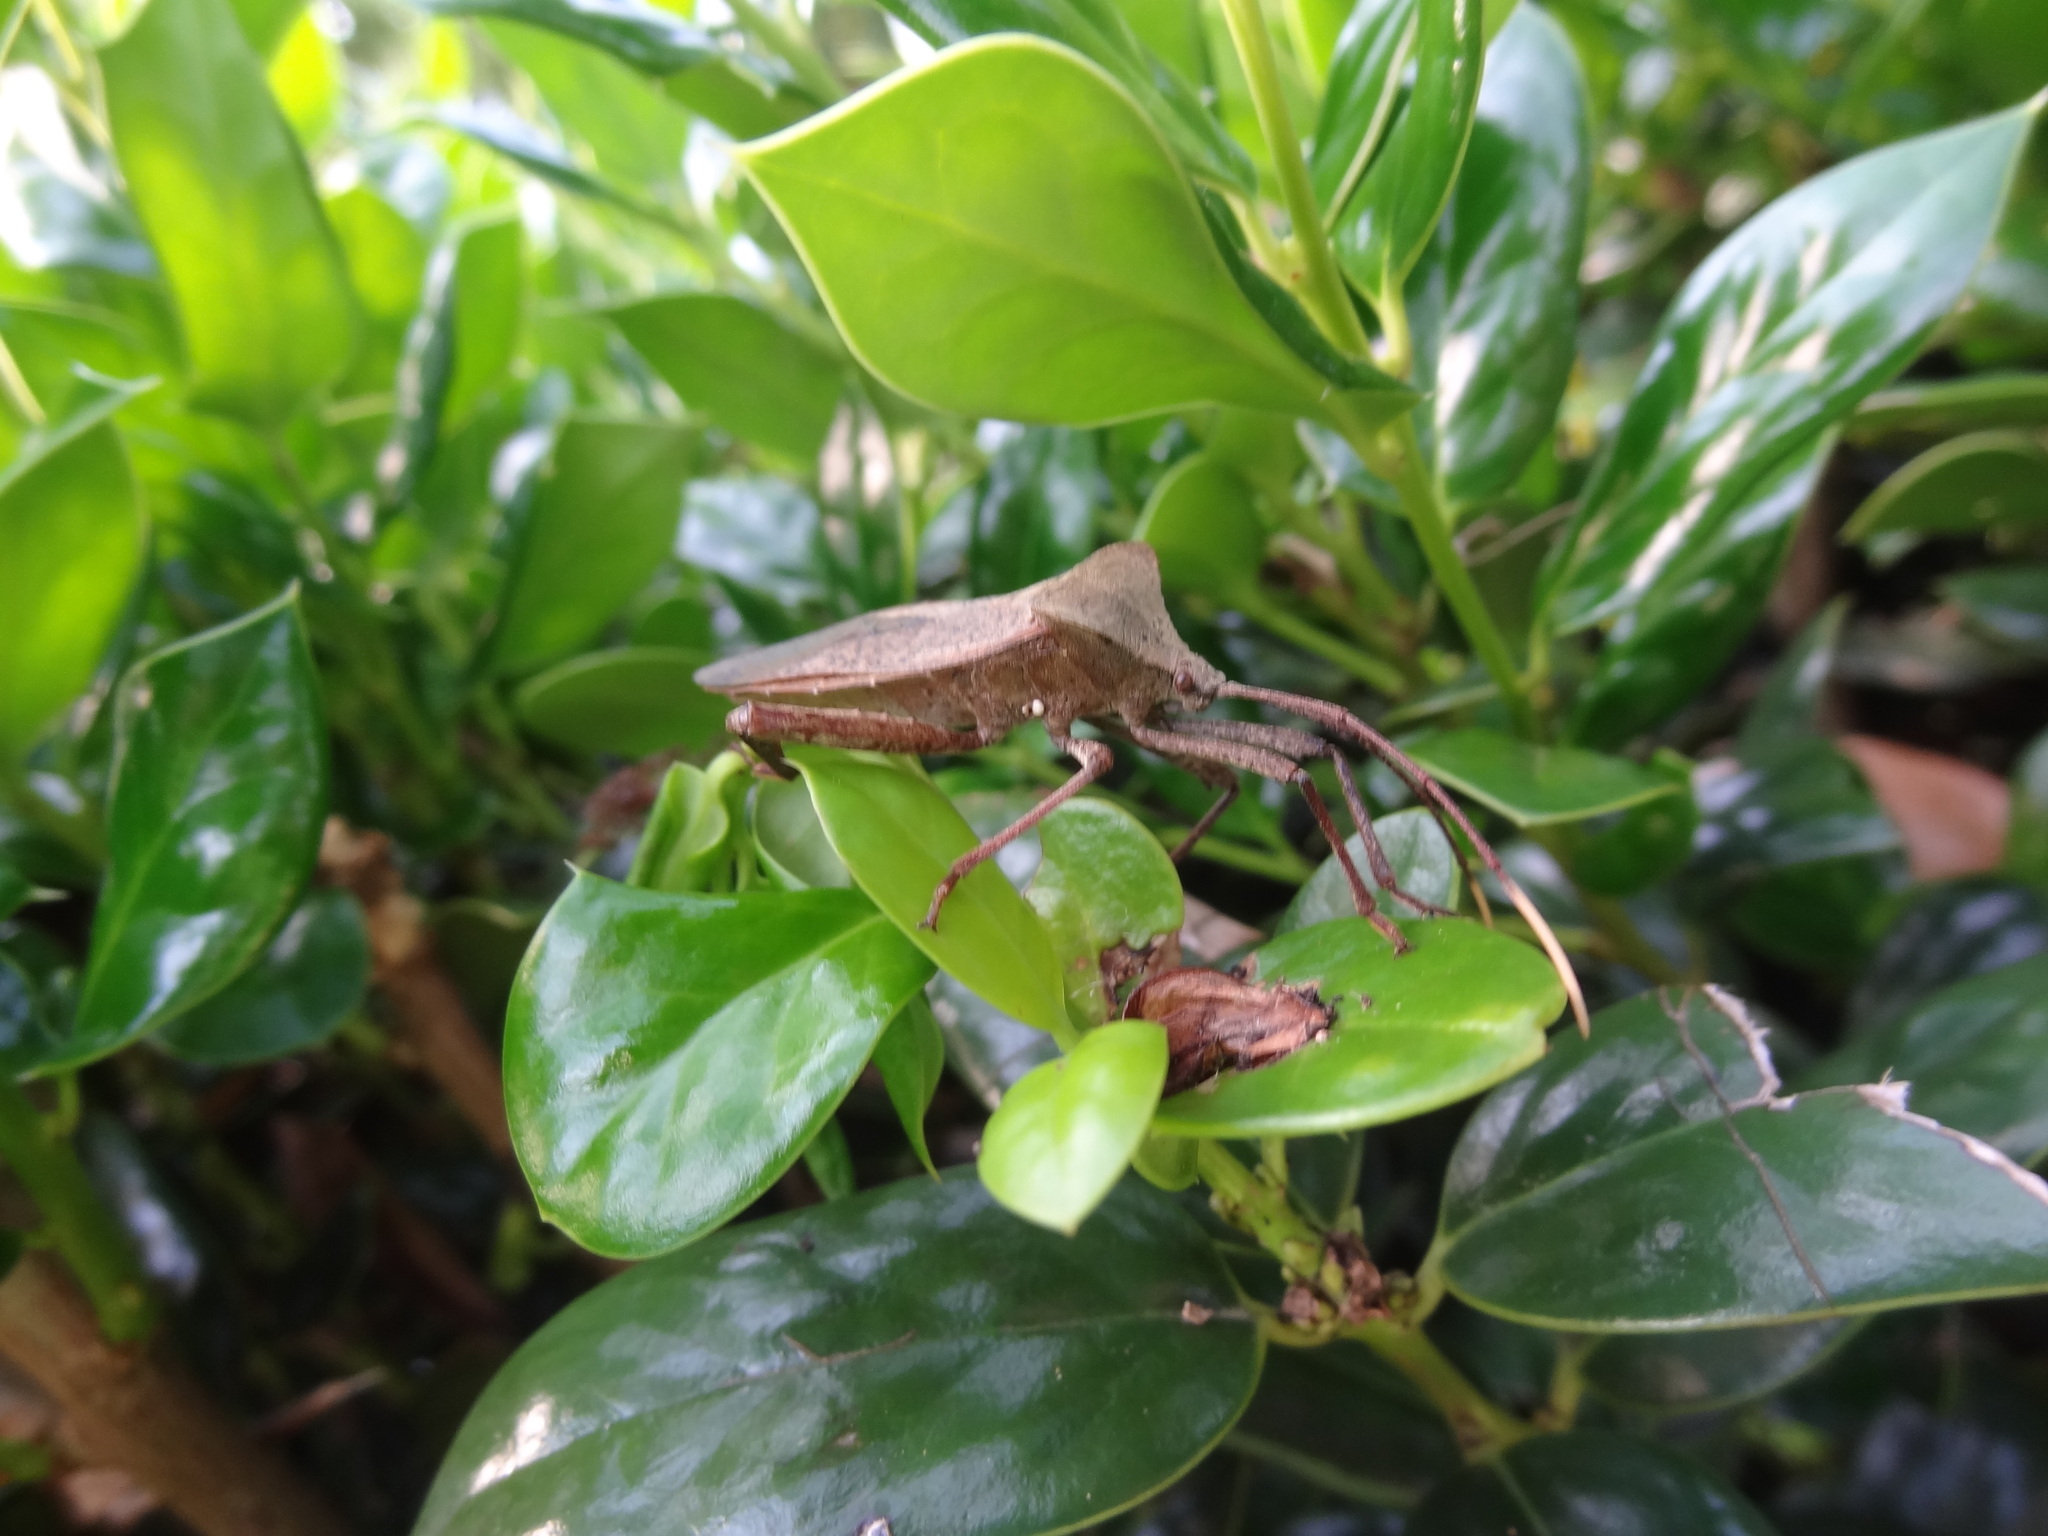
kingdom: Animalia
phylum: Arthropoda
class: Insecta
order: Hemiptera
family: Coreidae
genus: Rhamnomia
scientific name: Rhamnomia dubia
